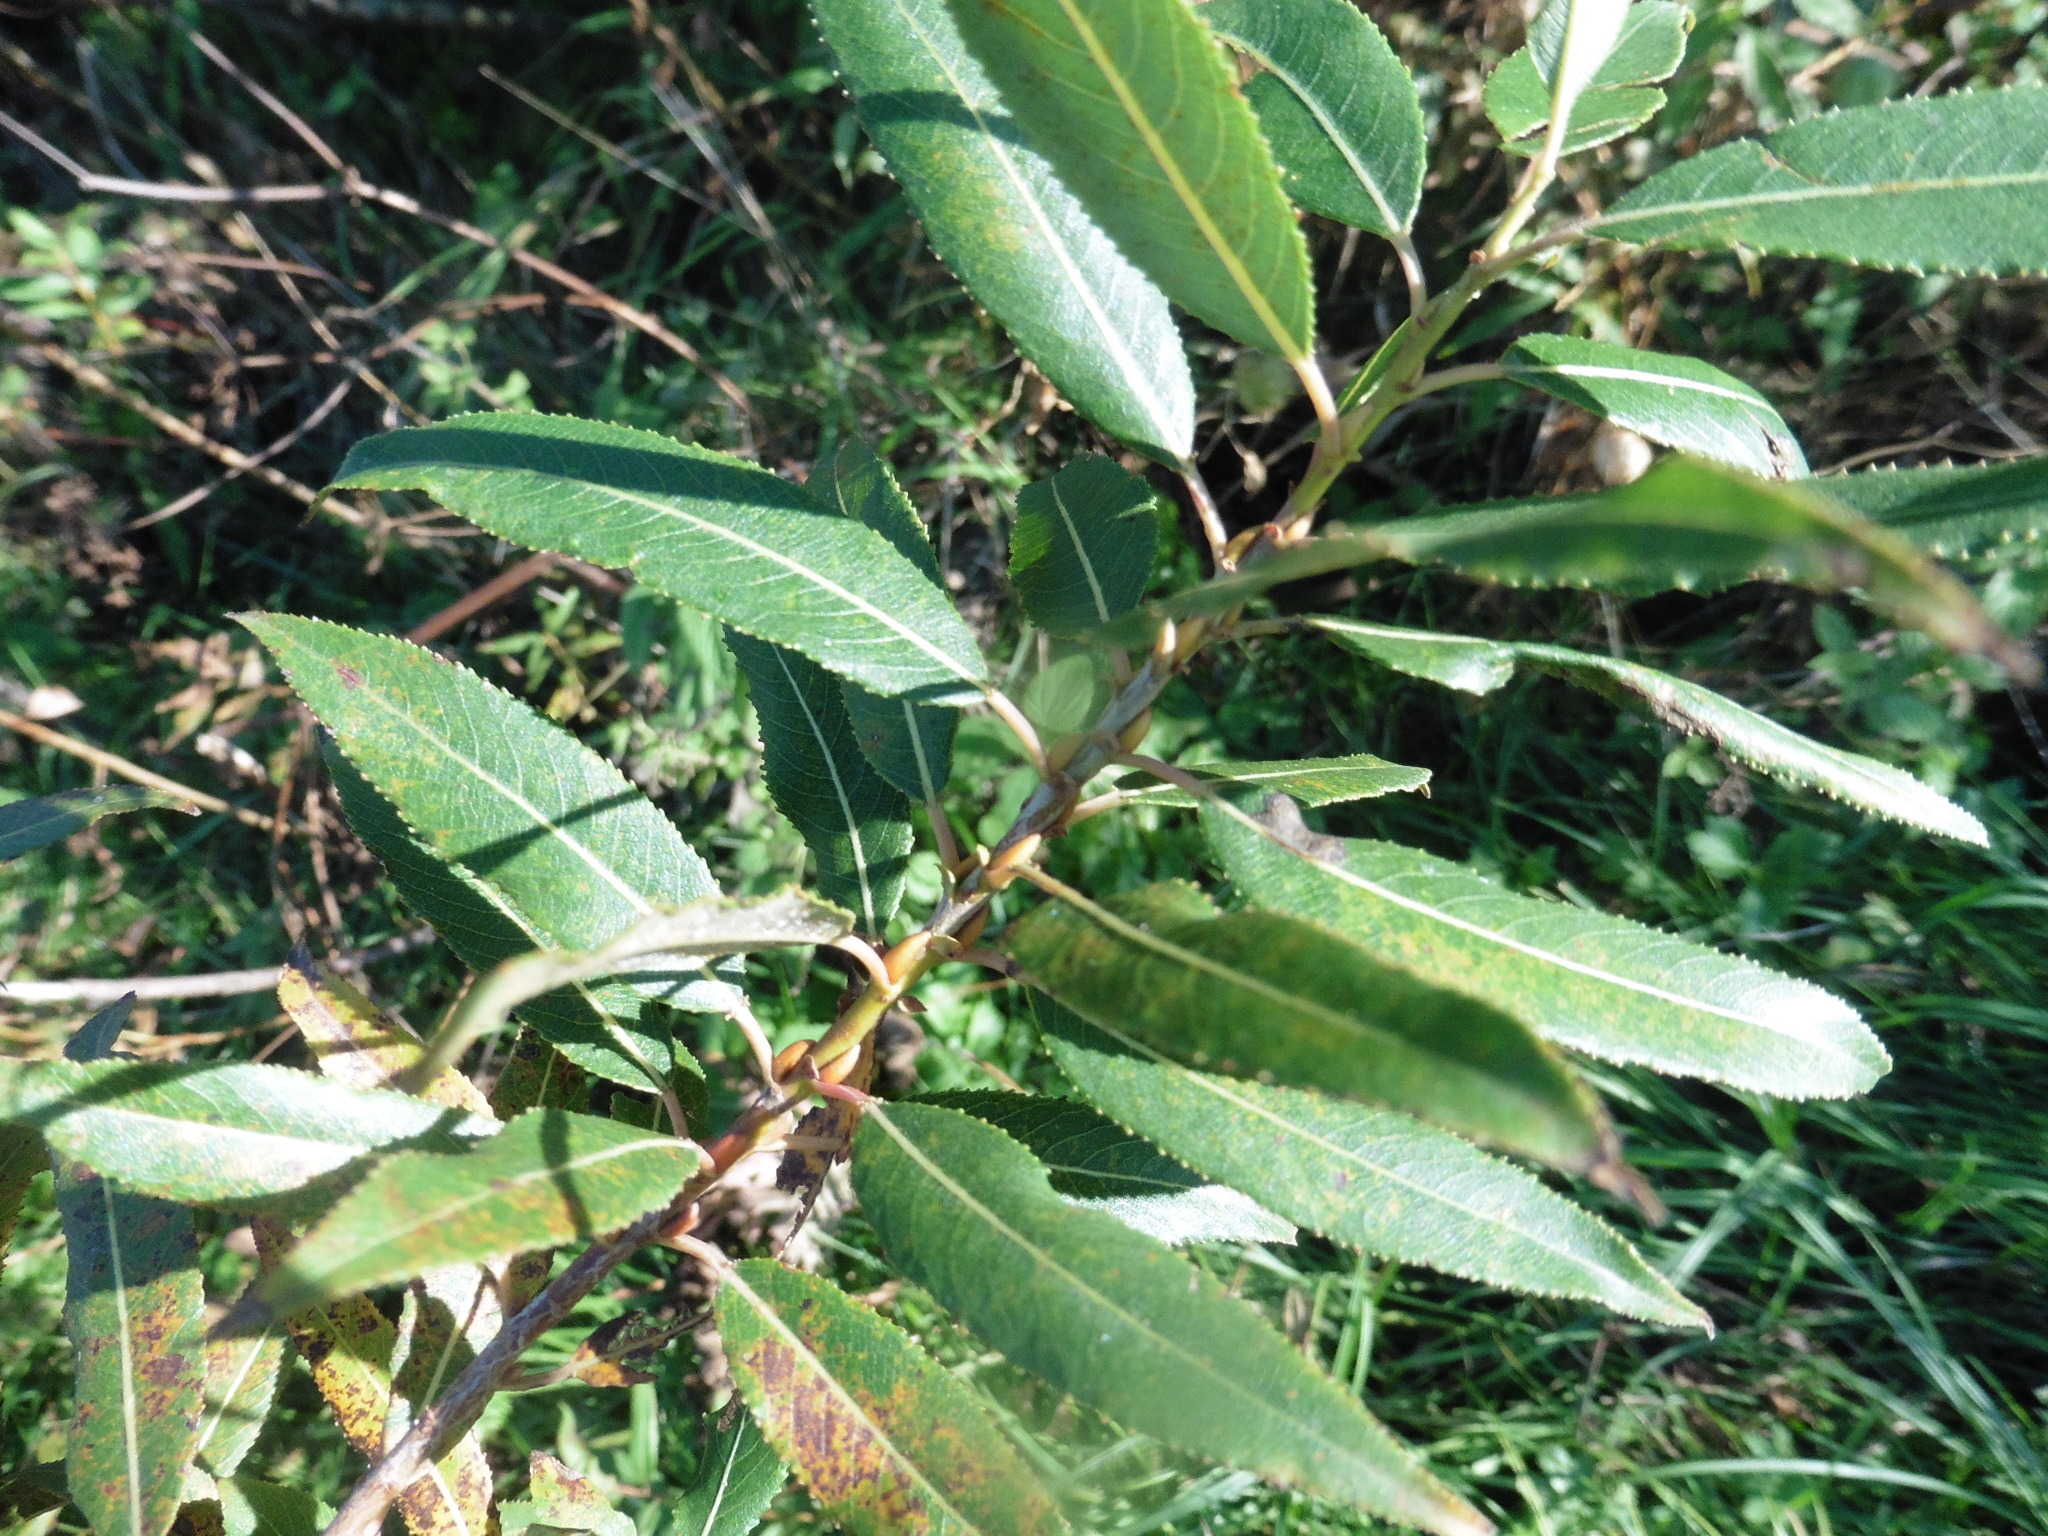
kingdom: Plantae
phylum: Tracheophyta
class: Magnoliopsida
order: Malpighiales
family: Salicaceae
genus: Salix
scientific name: Salix triandra
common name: Almond willow
